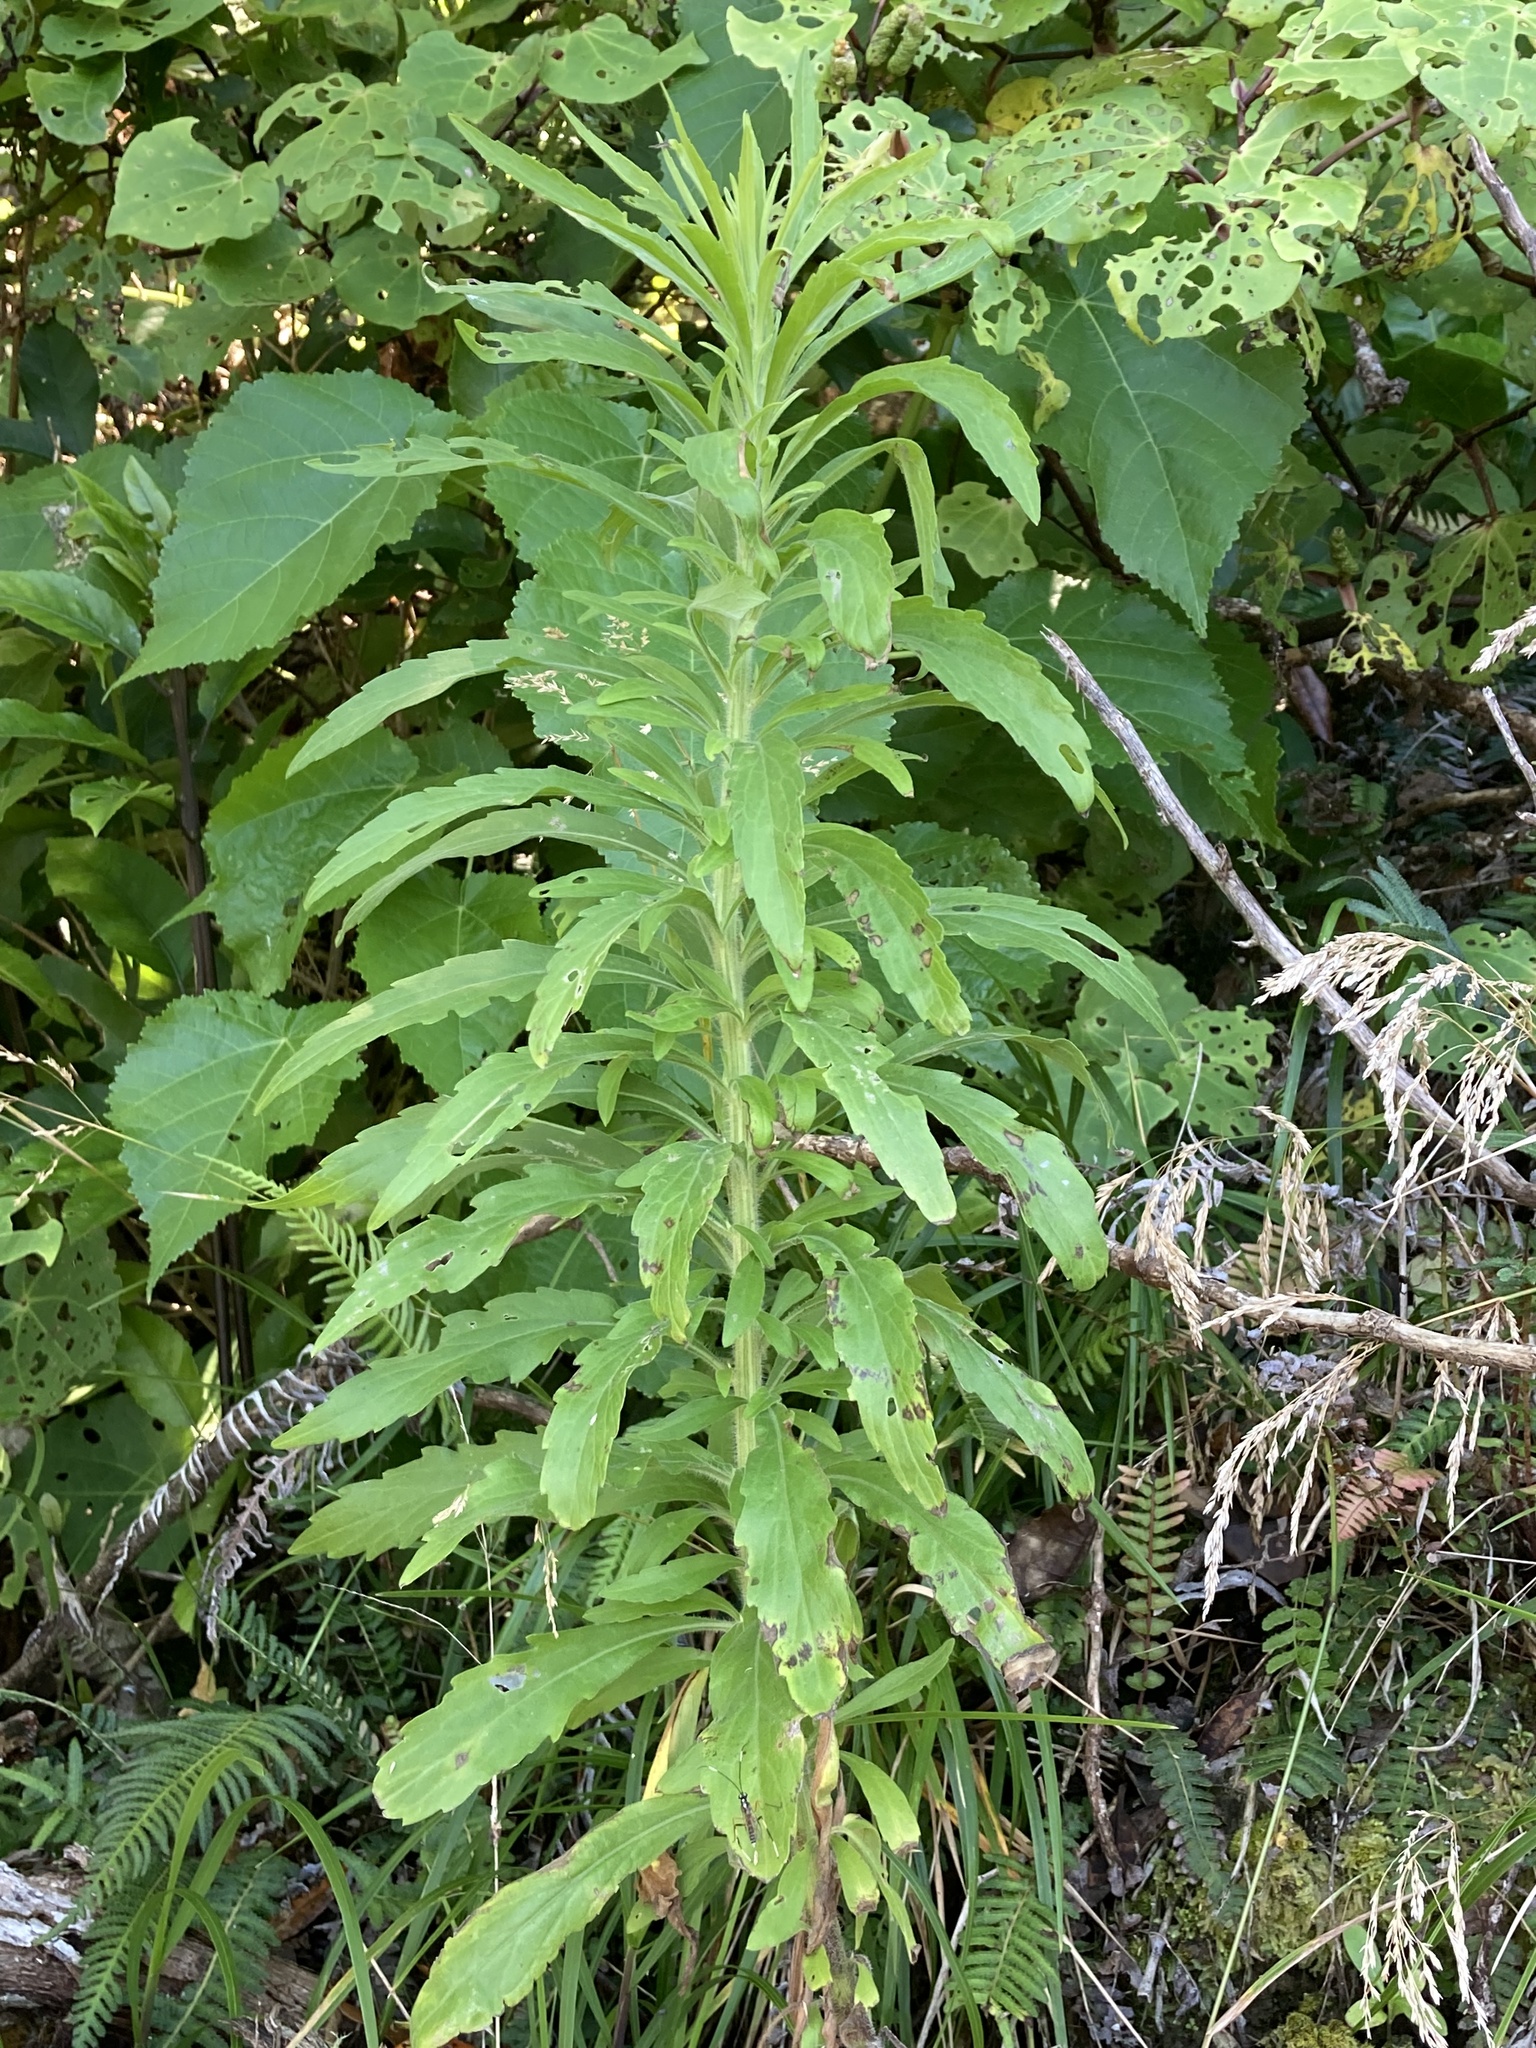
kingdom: Plantae
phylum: Tracheophyta
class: Magnoliopsida
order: Asterales
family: Asteraceae
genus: Erigeron
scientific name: Erigeron sumatrensis
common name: Daisy
